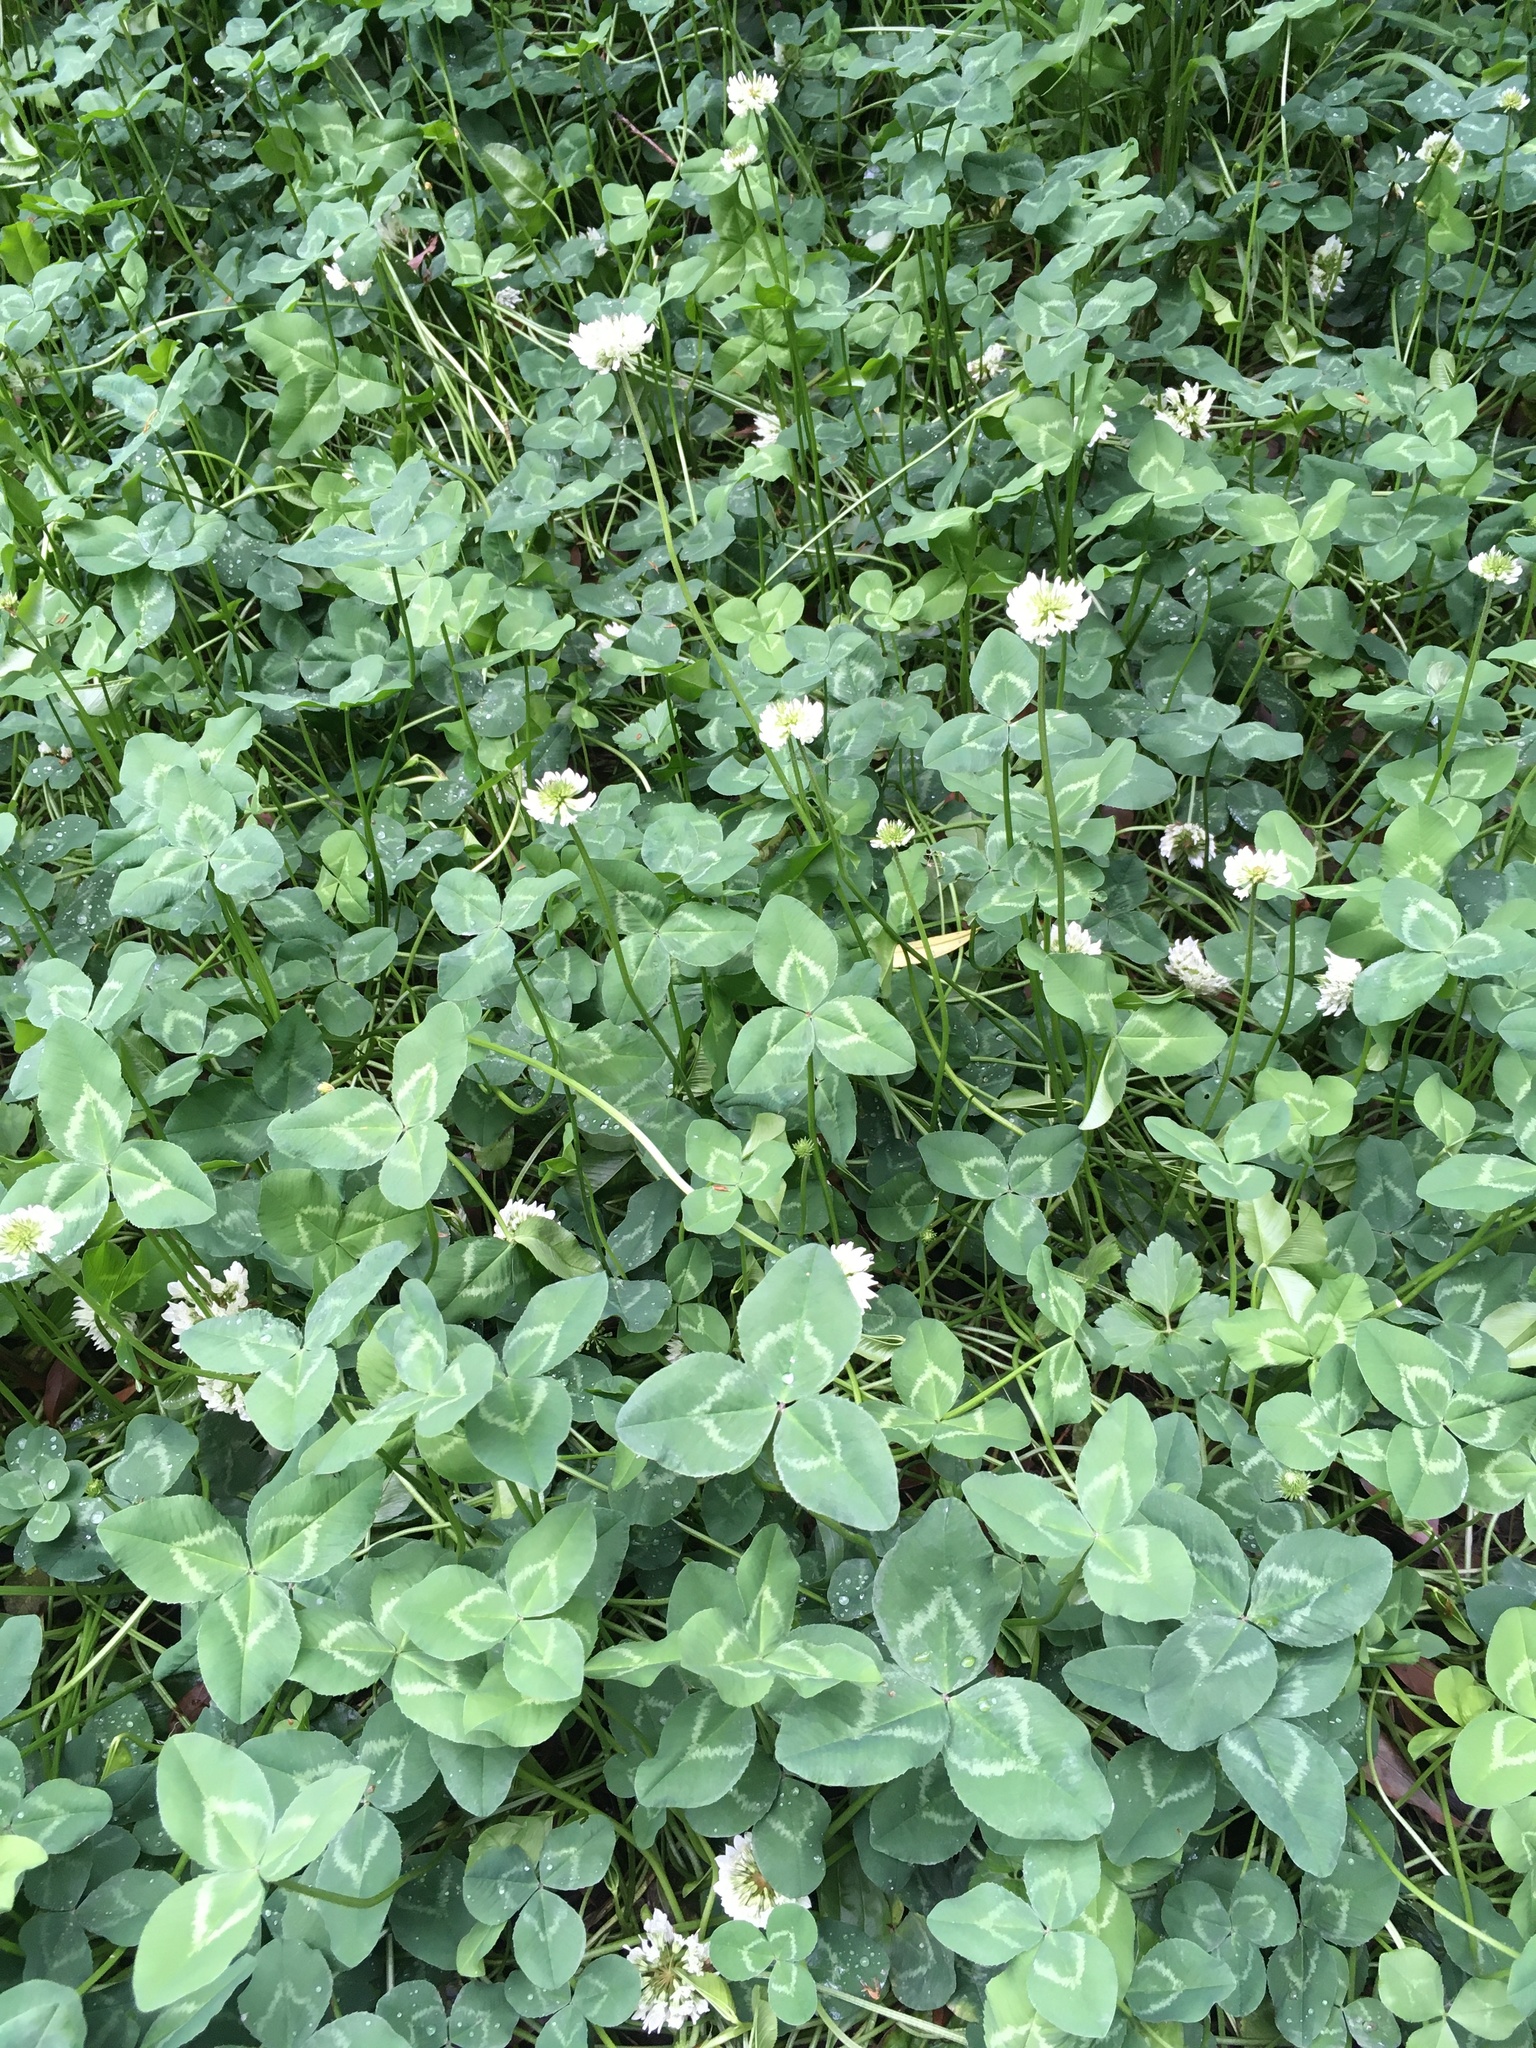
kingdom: Plantae
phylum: Tracheophyta
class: Magnoliopsida
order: Fabales
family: Fabaceae
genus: Trifolium
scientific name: Trifolium repens
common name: White clover
